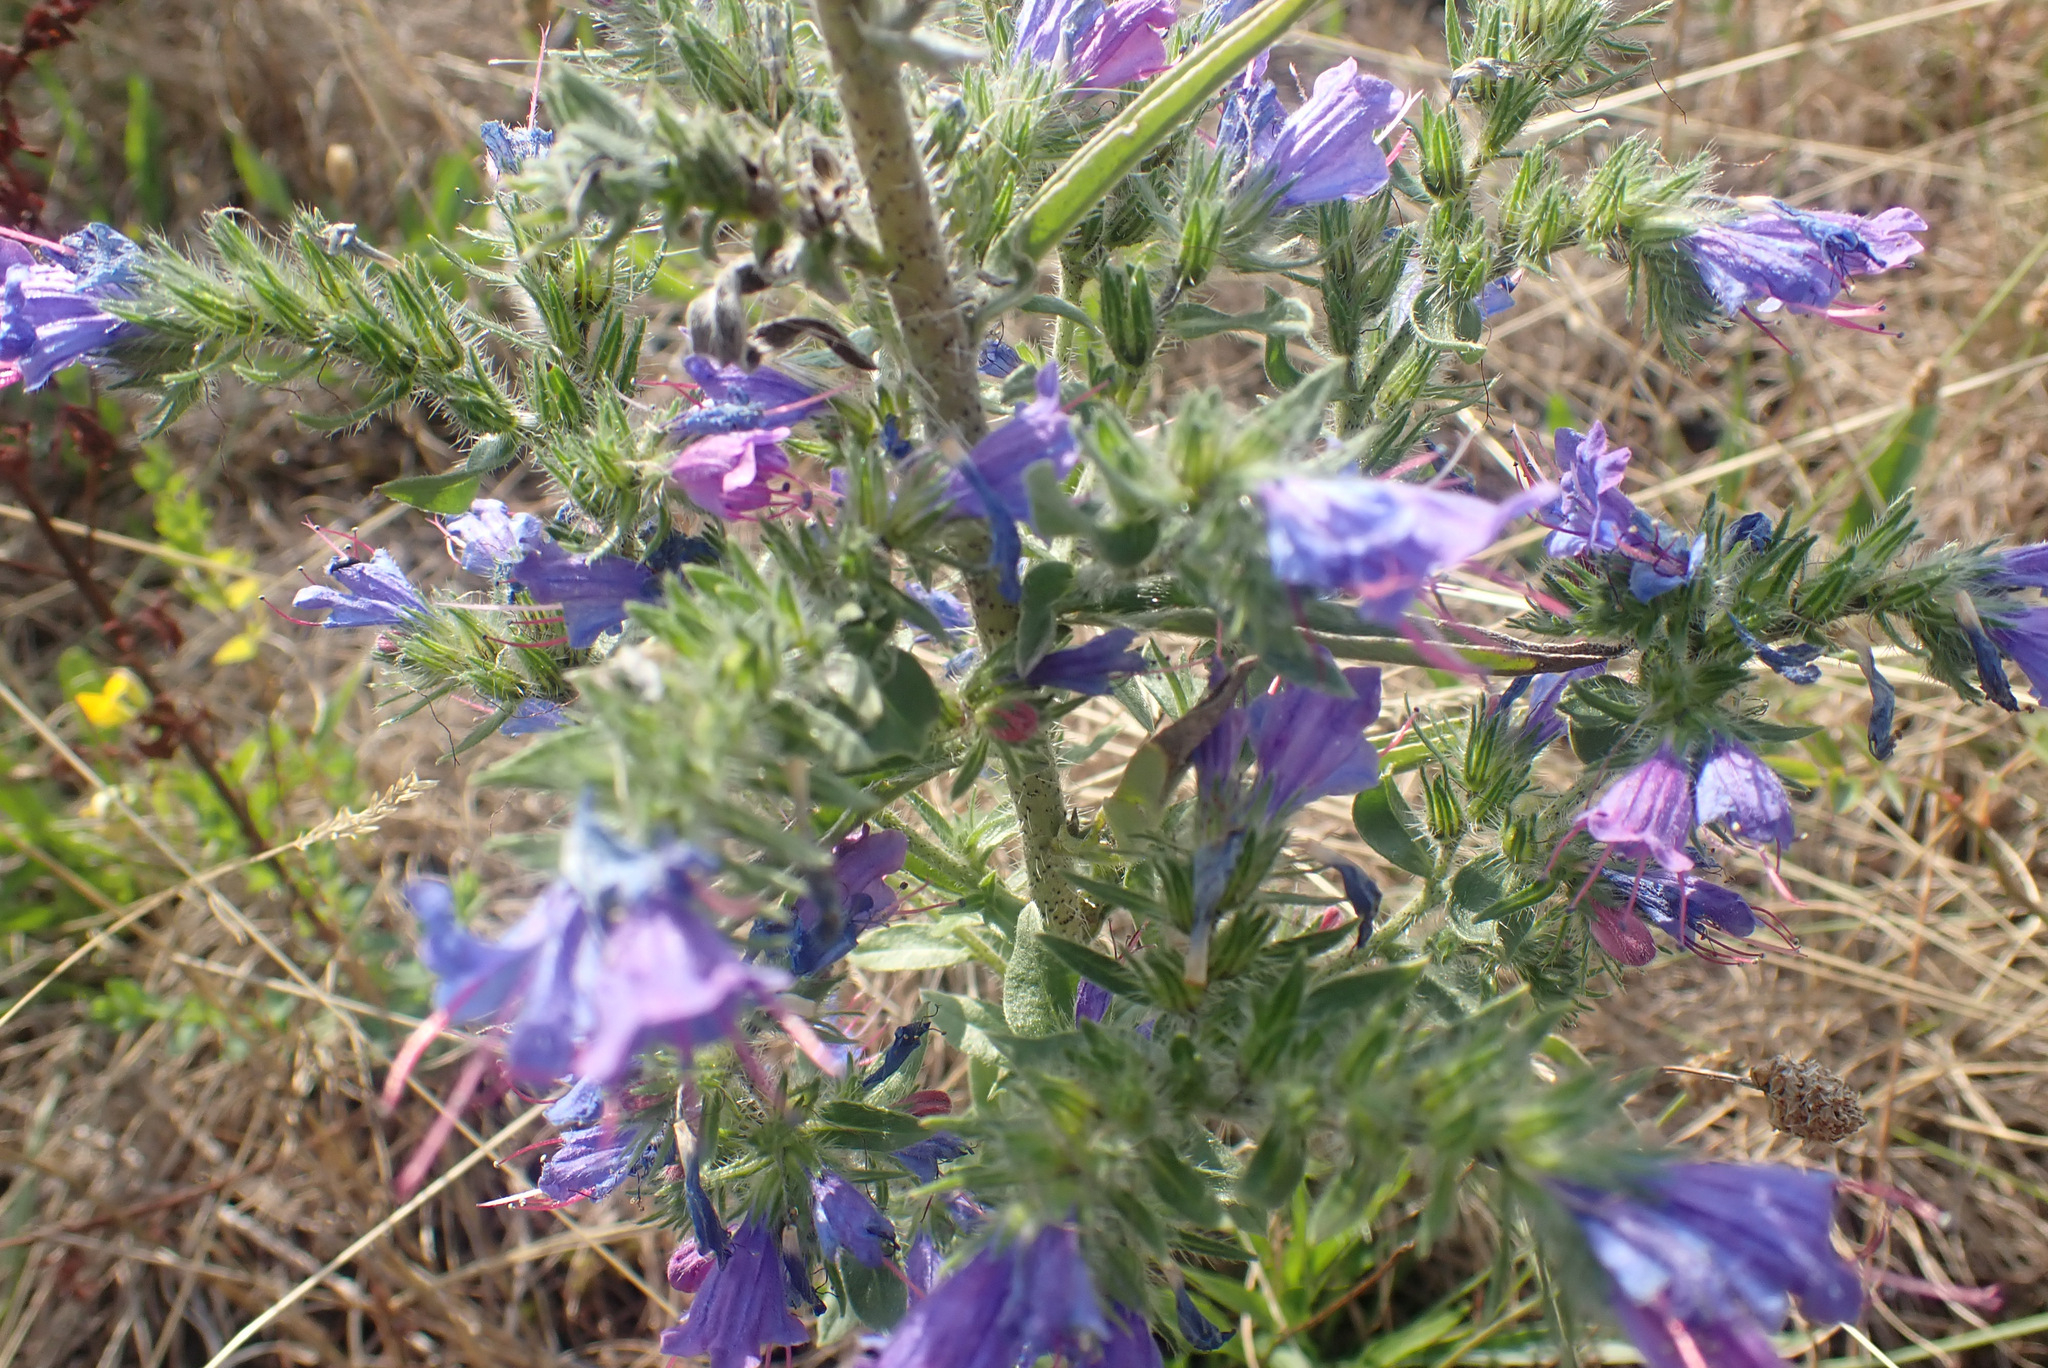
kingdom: Plantae
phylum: Tracheophyta
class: Magnoliopsida
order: Boraginales
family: Boraginaceae
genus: Echium
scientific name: Echium vulgare
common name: Common viper's bugloss
